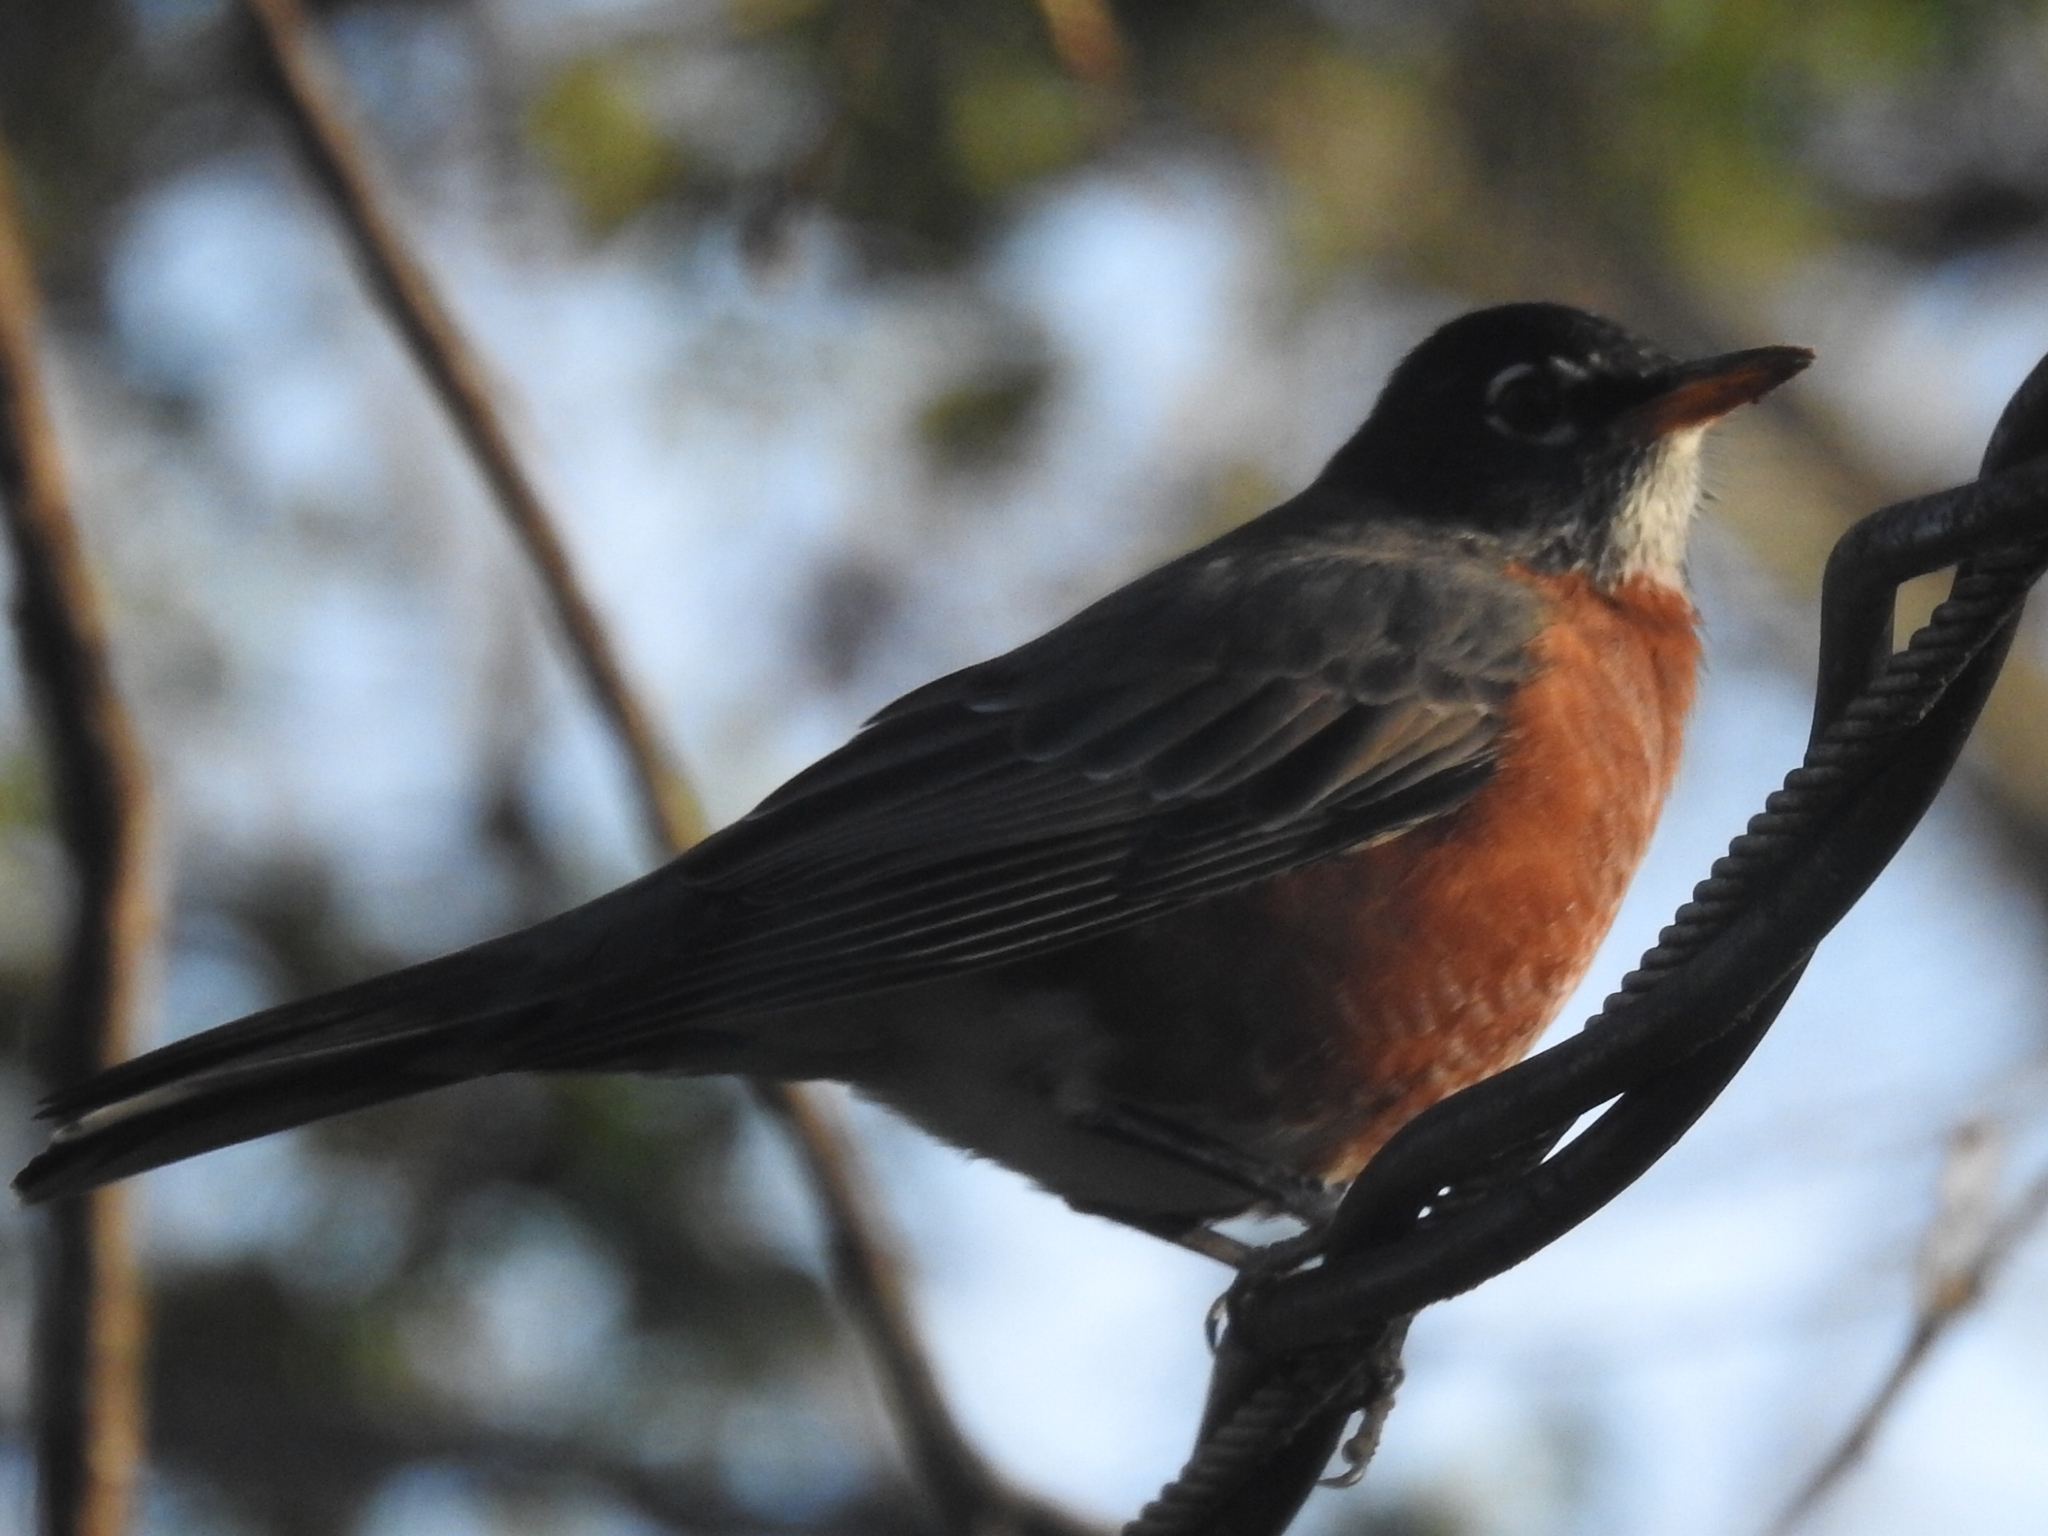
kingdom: Animalia
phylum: Chordata
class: Aves
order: Passeriformes
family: Turdidae
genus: Turdus
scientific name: Turdus migratorius
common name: American robin
